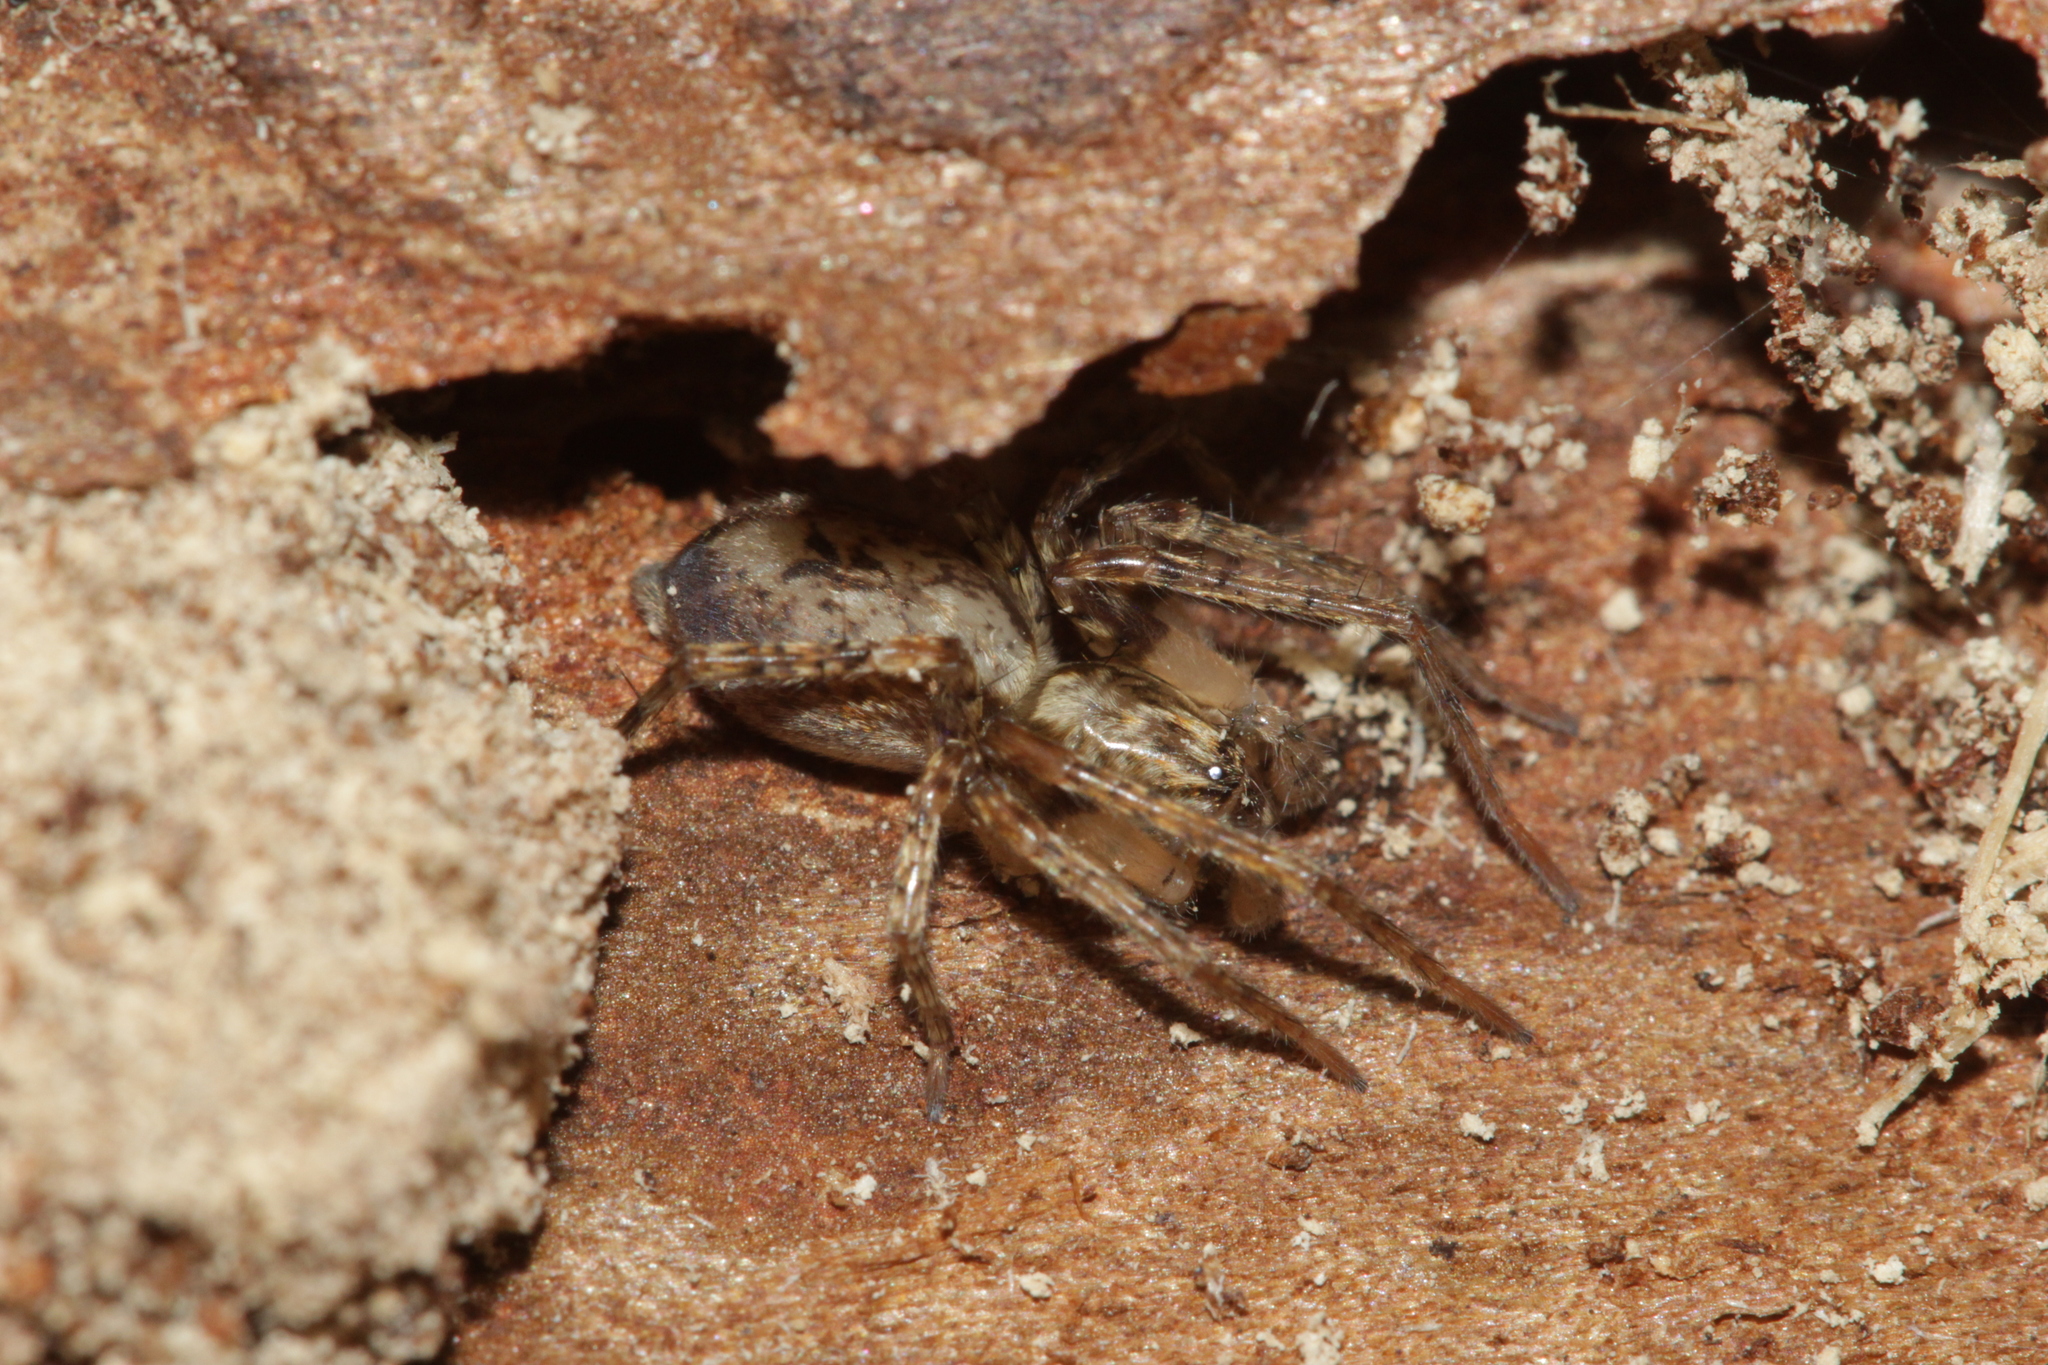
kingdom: Animalia
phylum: Arthropoda
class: Arachnida
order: Araneae
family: Anyphaenidae
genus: Anyphaena
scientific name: Anyphaena accentuata
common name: Buzzing spider
